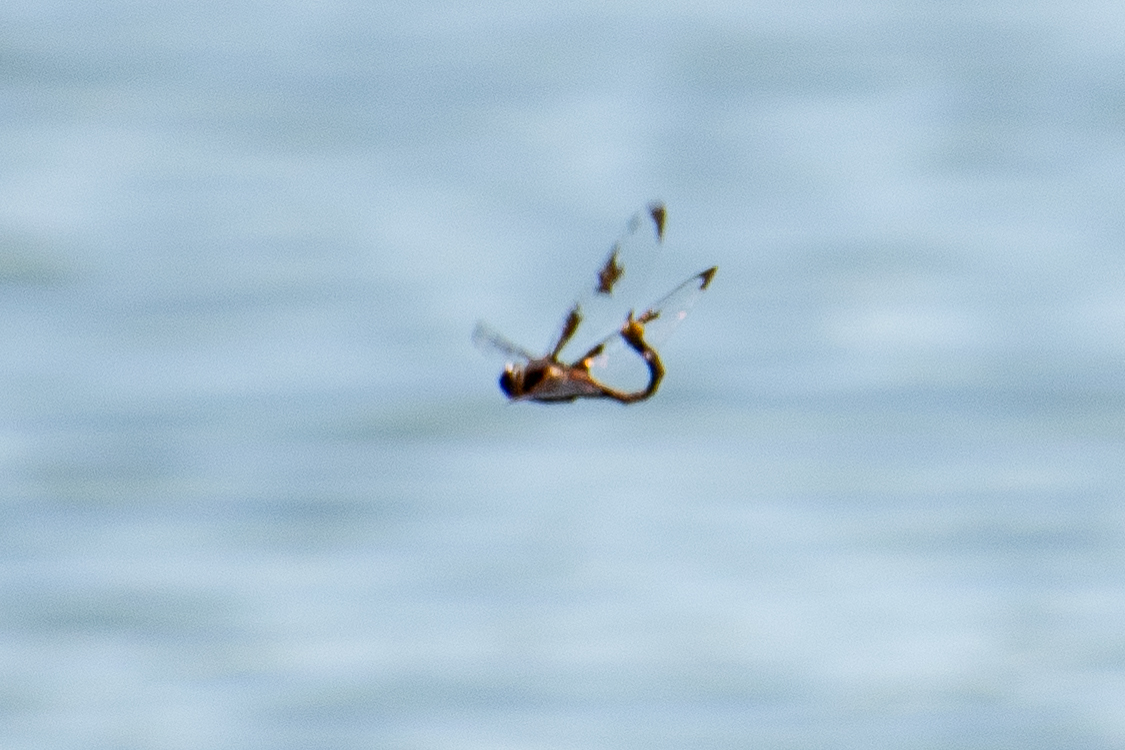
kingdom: Animalia
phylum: Arthropoda
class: Insecta
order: Odonata
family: Corduliidae
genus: Epitheca
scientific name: Epitheca princeps
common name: Prince baskettail
